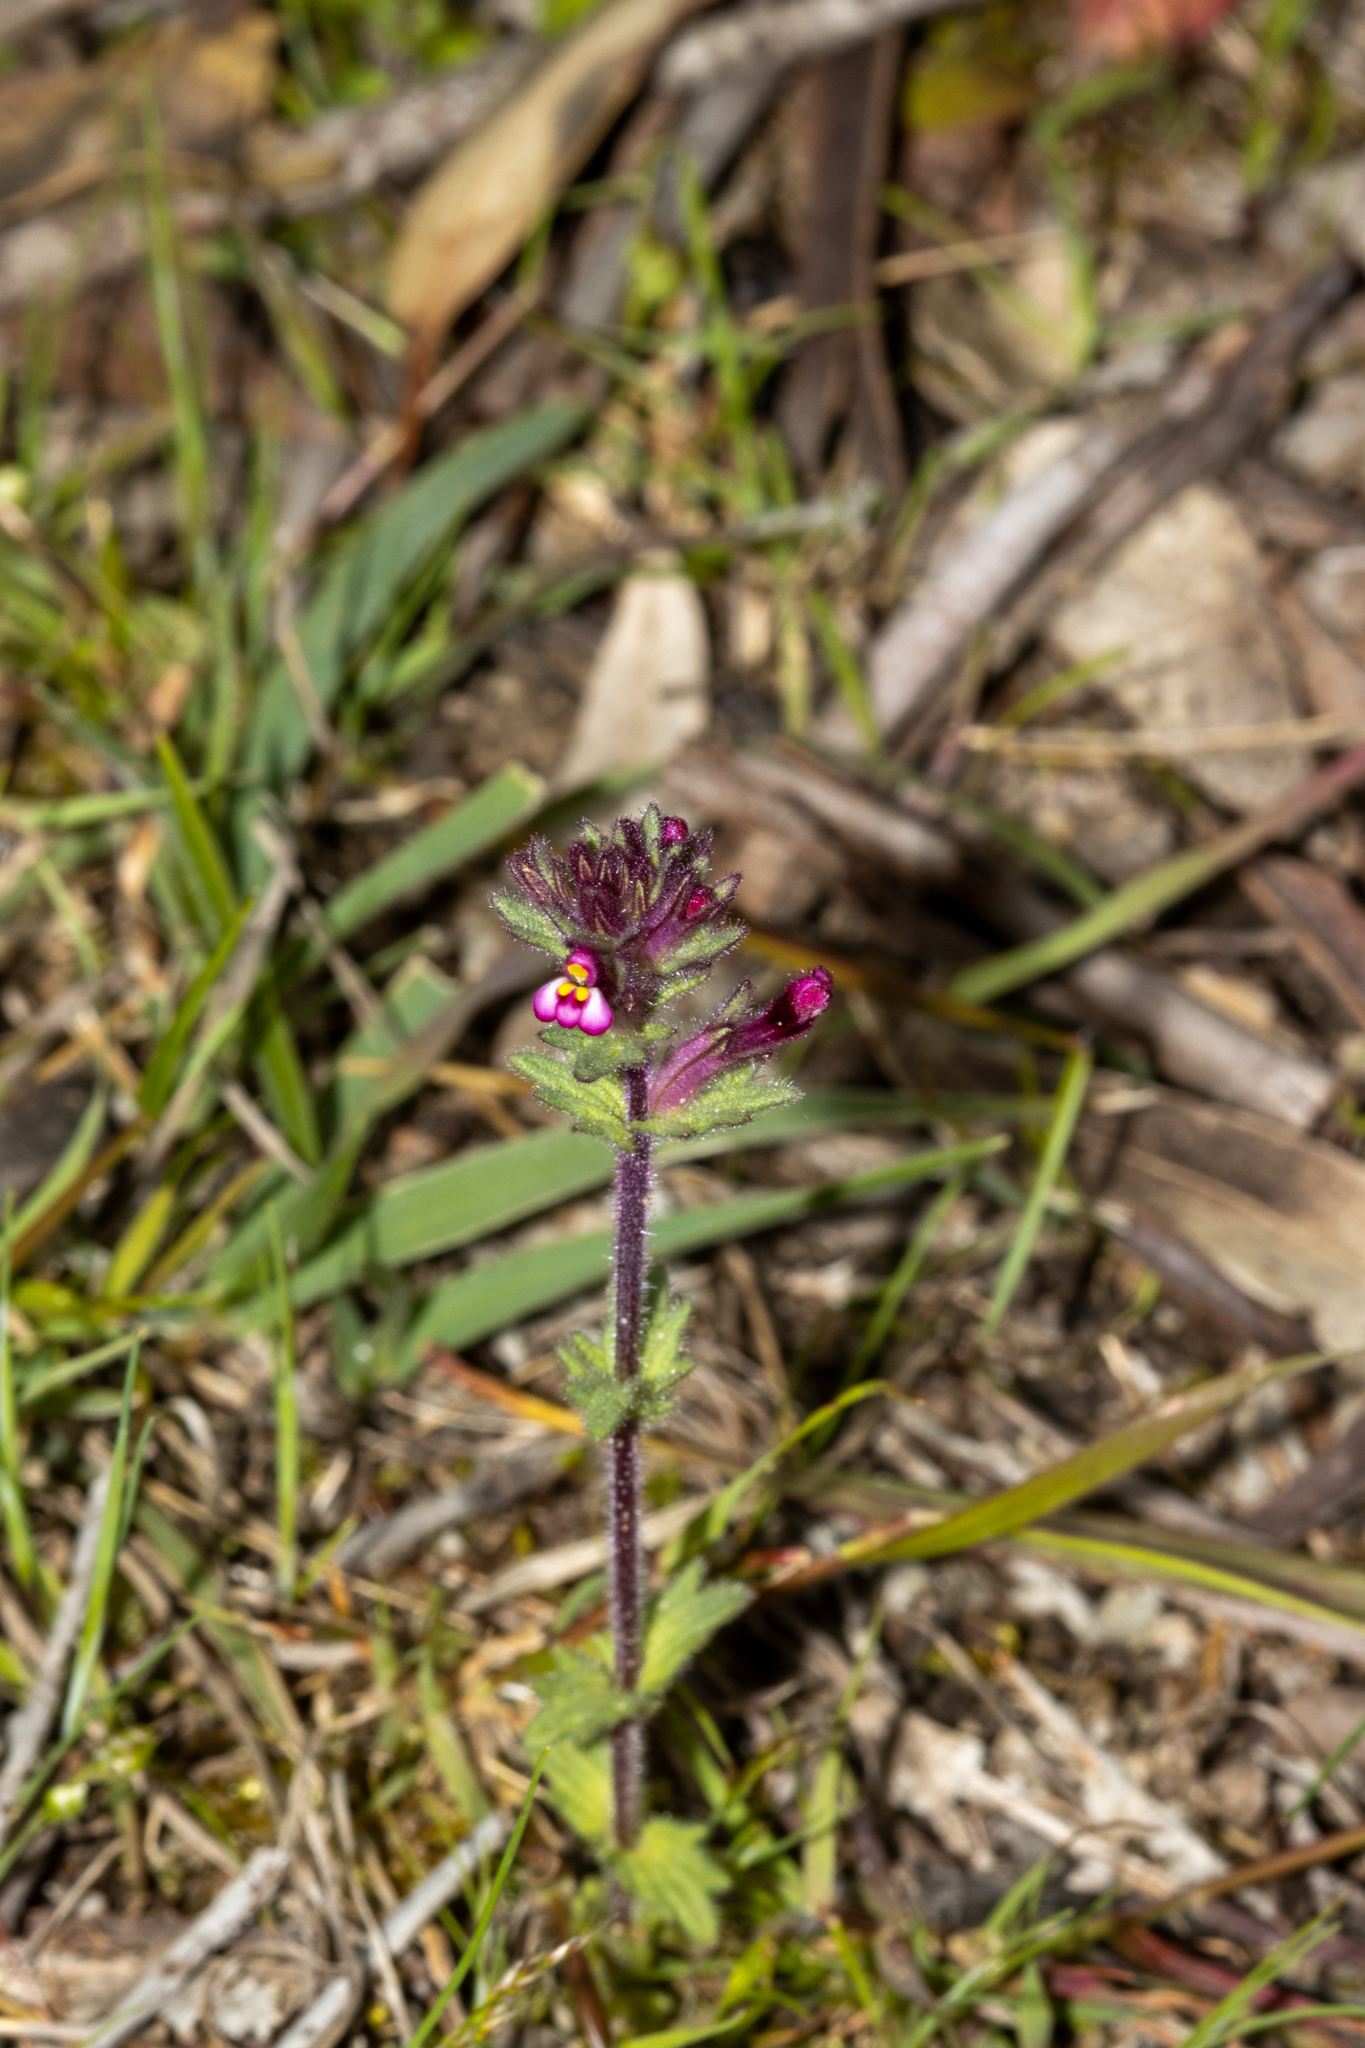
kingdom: Plantae
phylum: Tracheophyta
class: Magnoliopsida
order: Lamiales
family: Orobanchaceae
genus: Parentucellia
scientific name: Parentucellia latifolia
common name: Broadleaf glandweed
